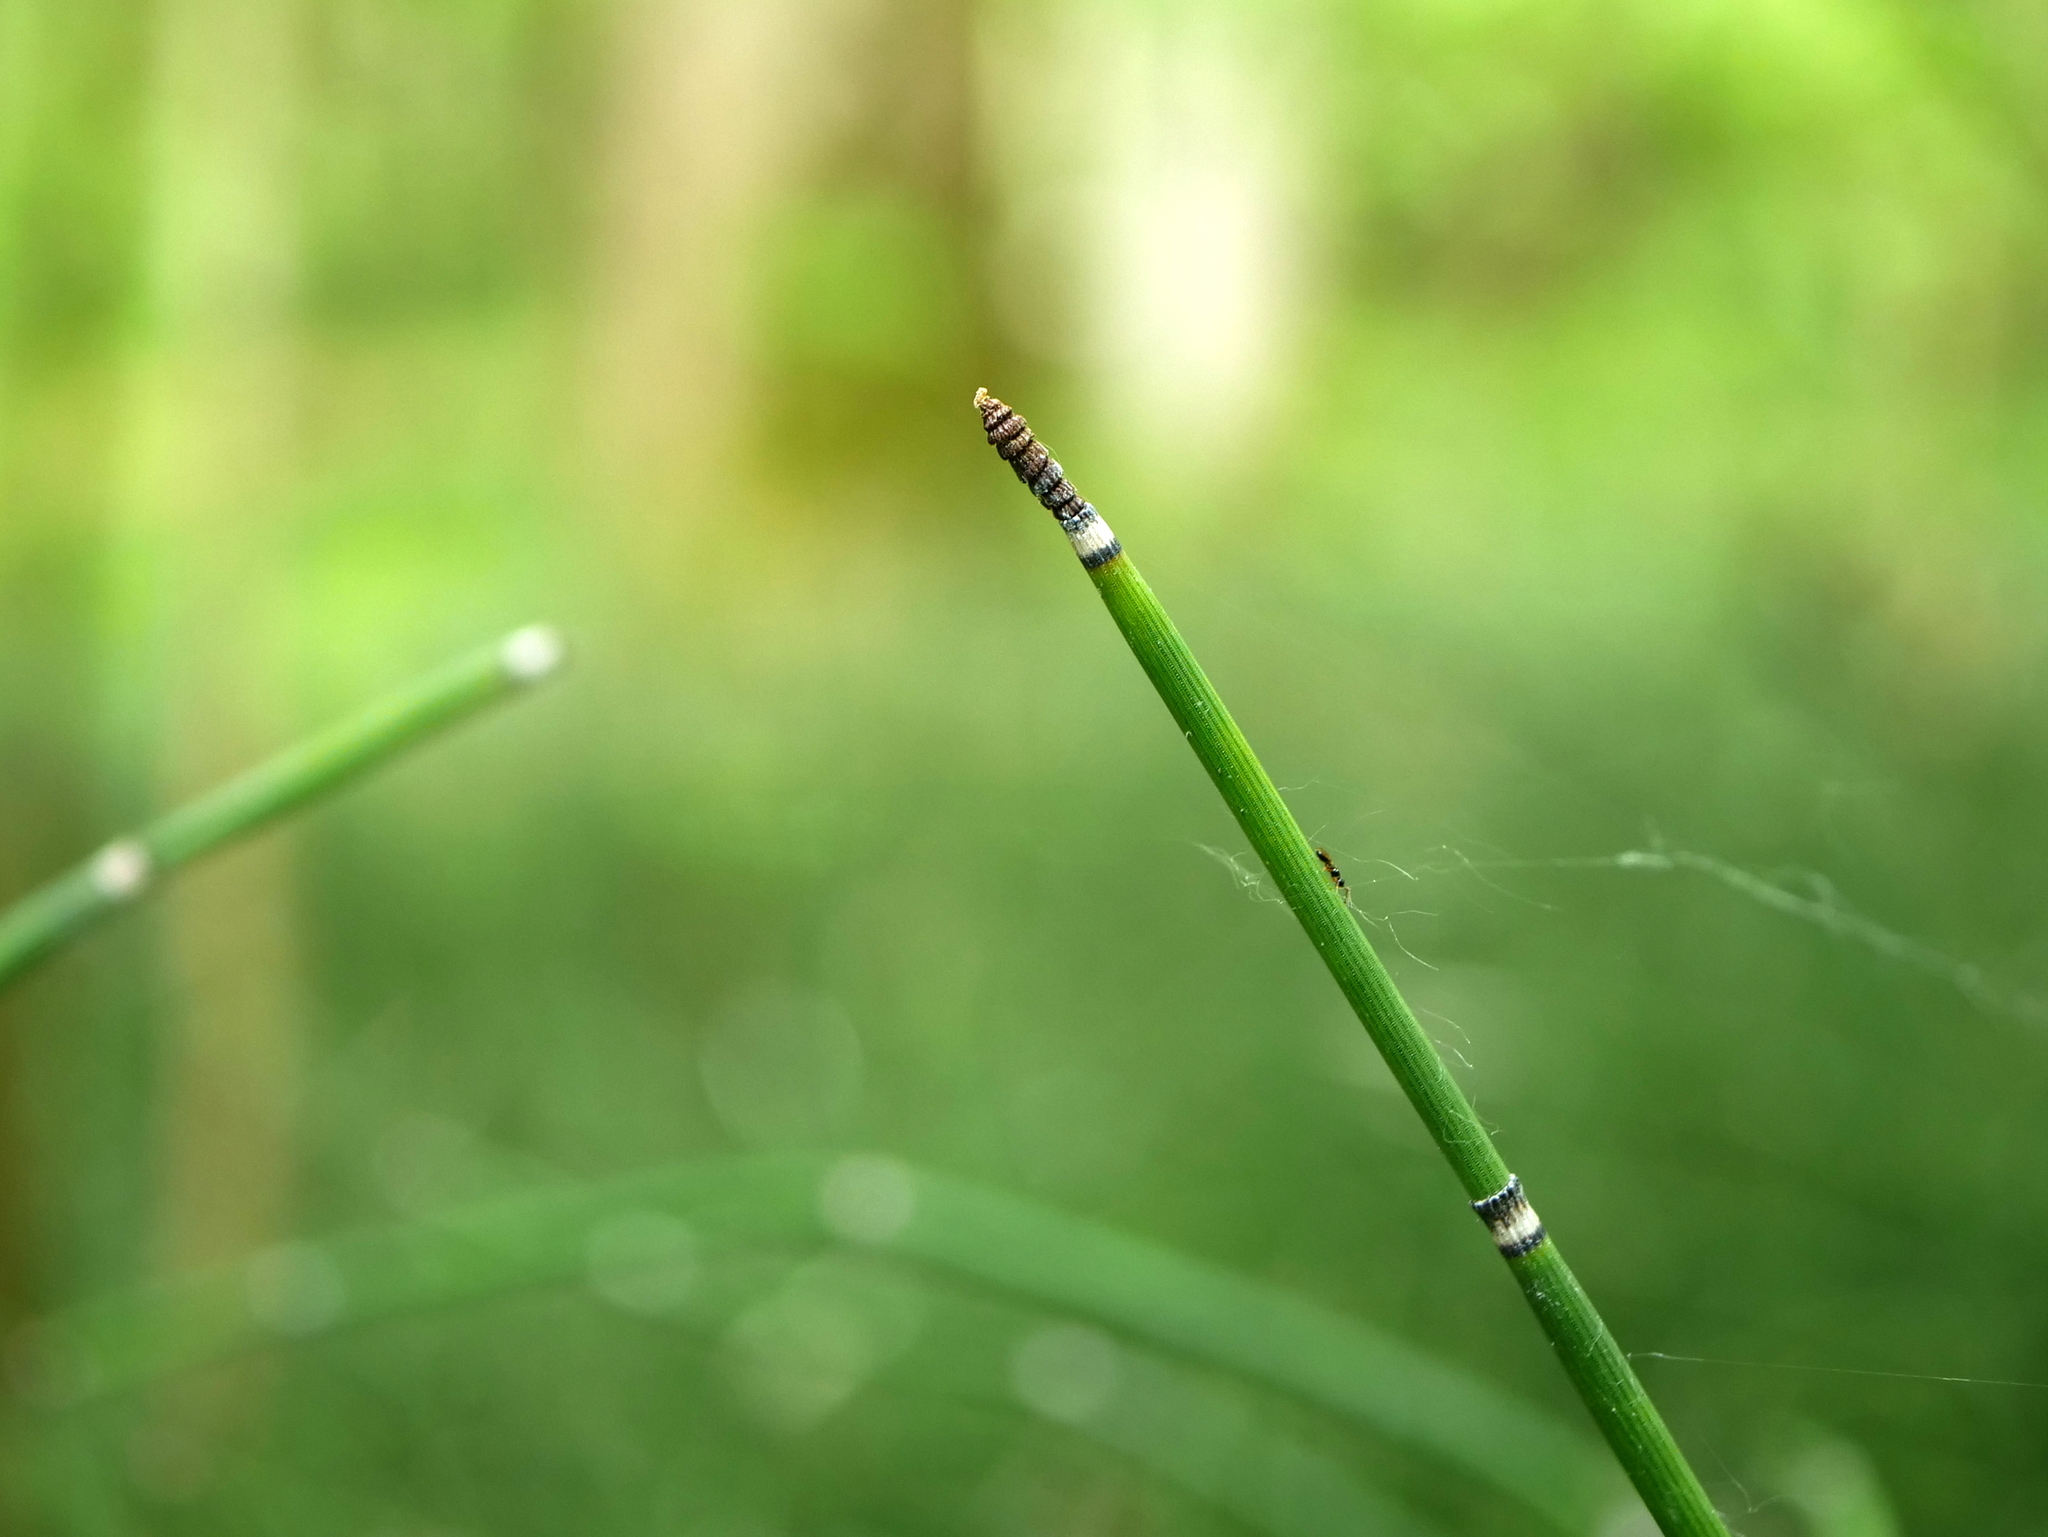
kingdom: Plantae
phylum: Tracheophyta
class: Polypodiopsida
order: Equisetales
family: Equisetaceae
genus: Equisetum
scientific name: Equisetum hyemale
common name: Rough horsetail
